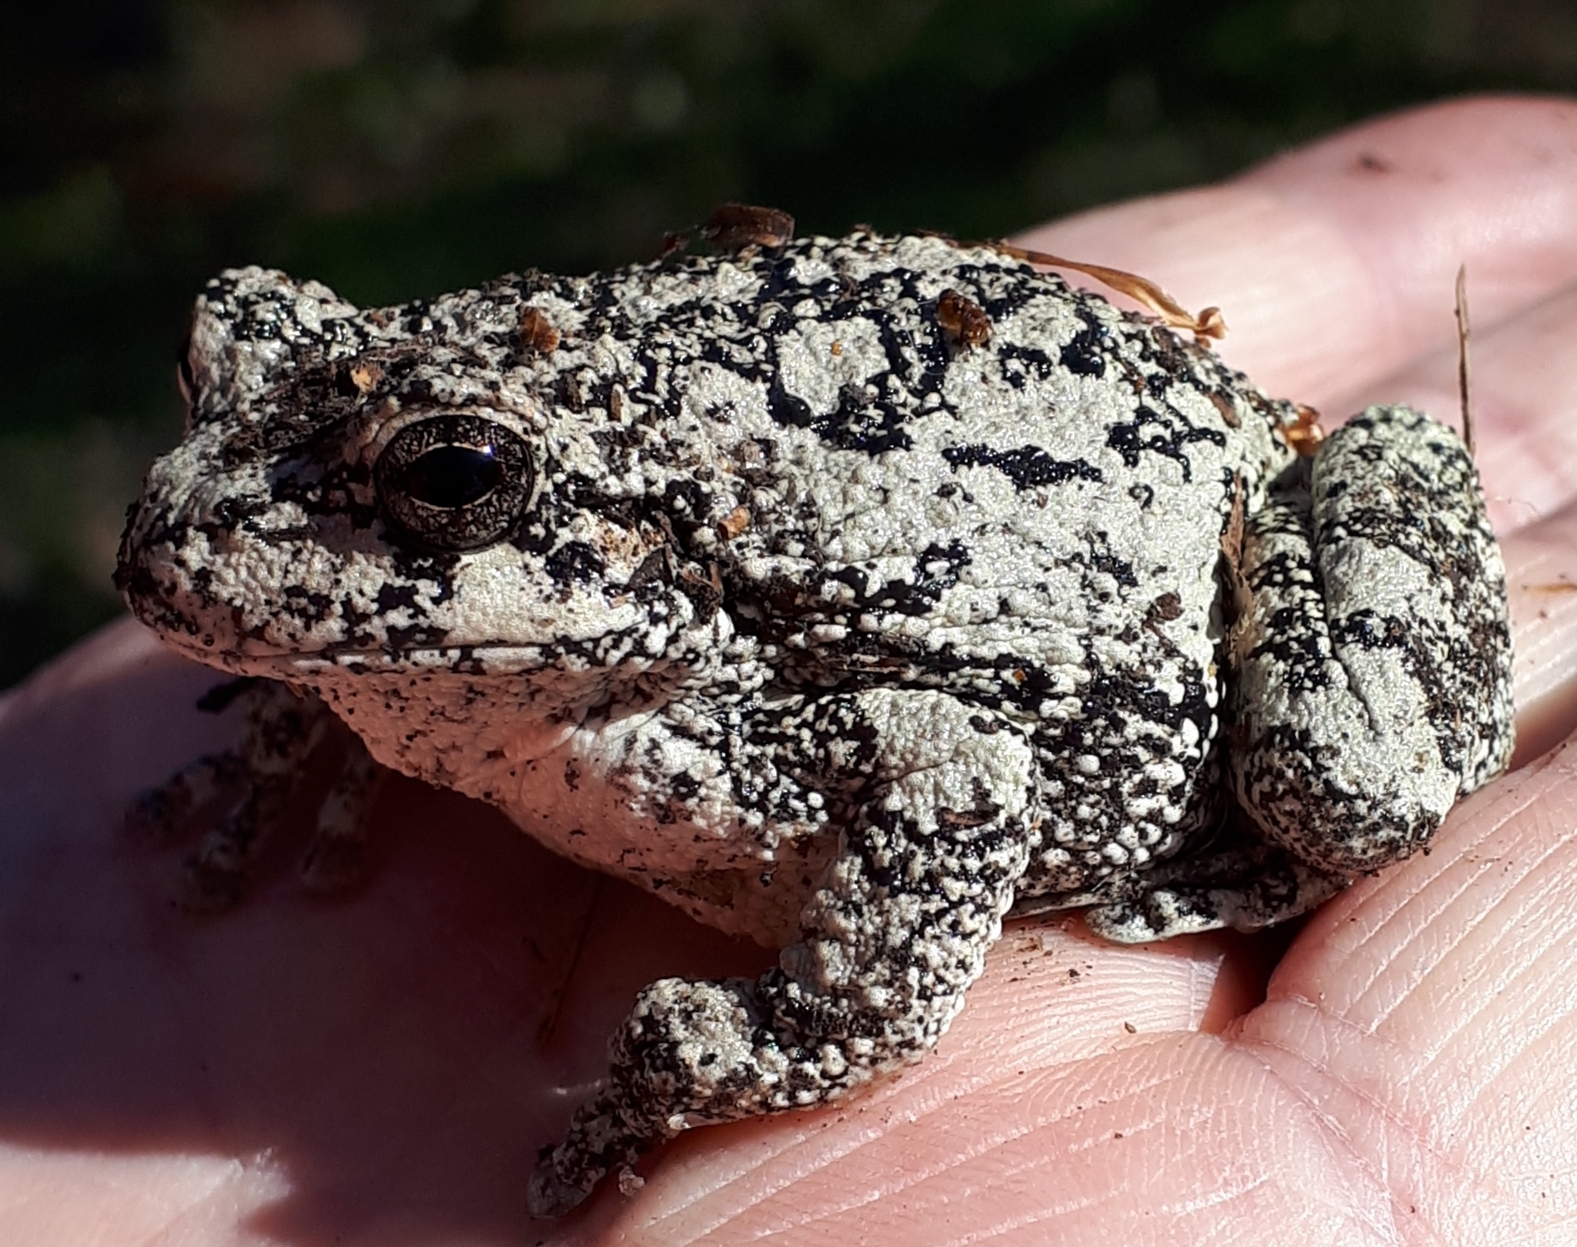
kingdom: Animalia
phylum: Chordata
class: Amphibia
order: Anura
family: Hylidae
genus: Dryophytes
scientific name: Dryophytes versicolor
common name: Gray treefrog
